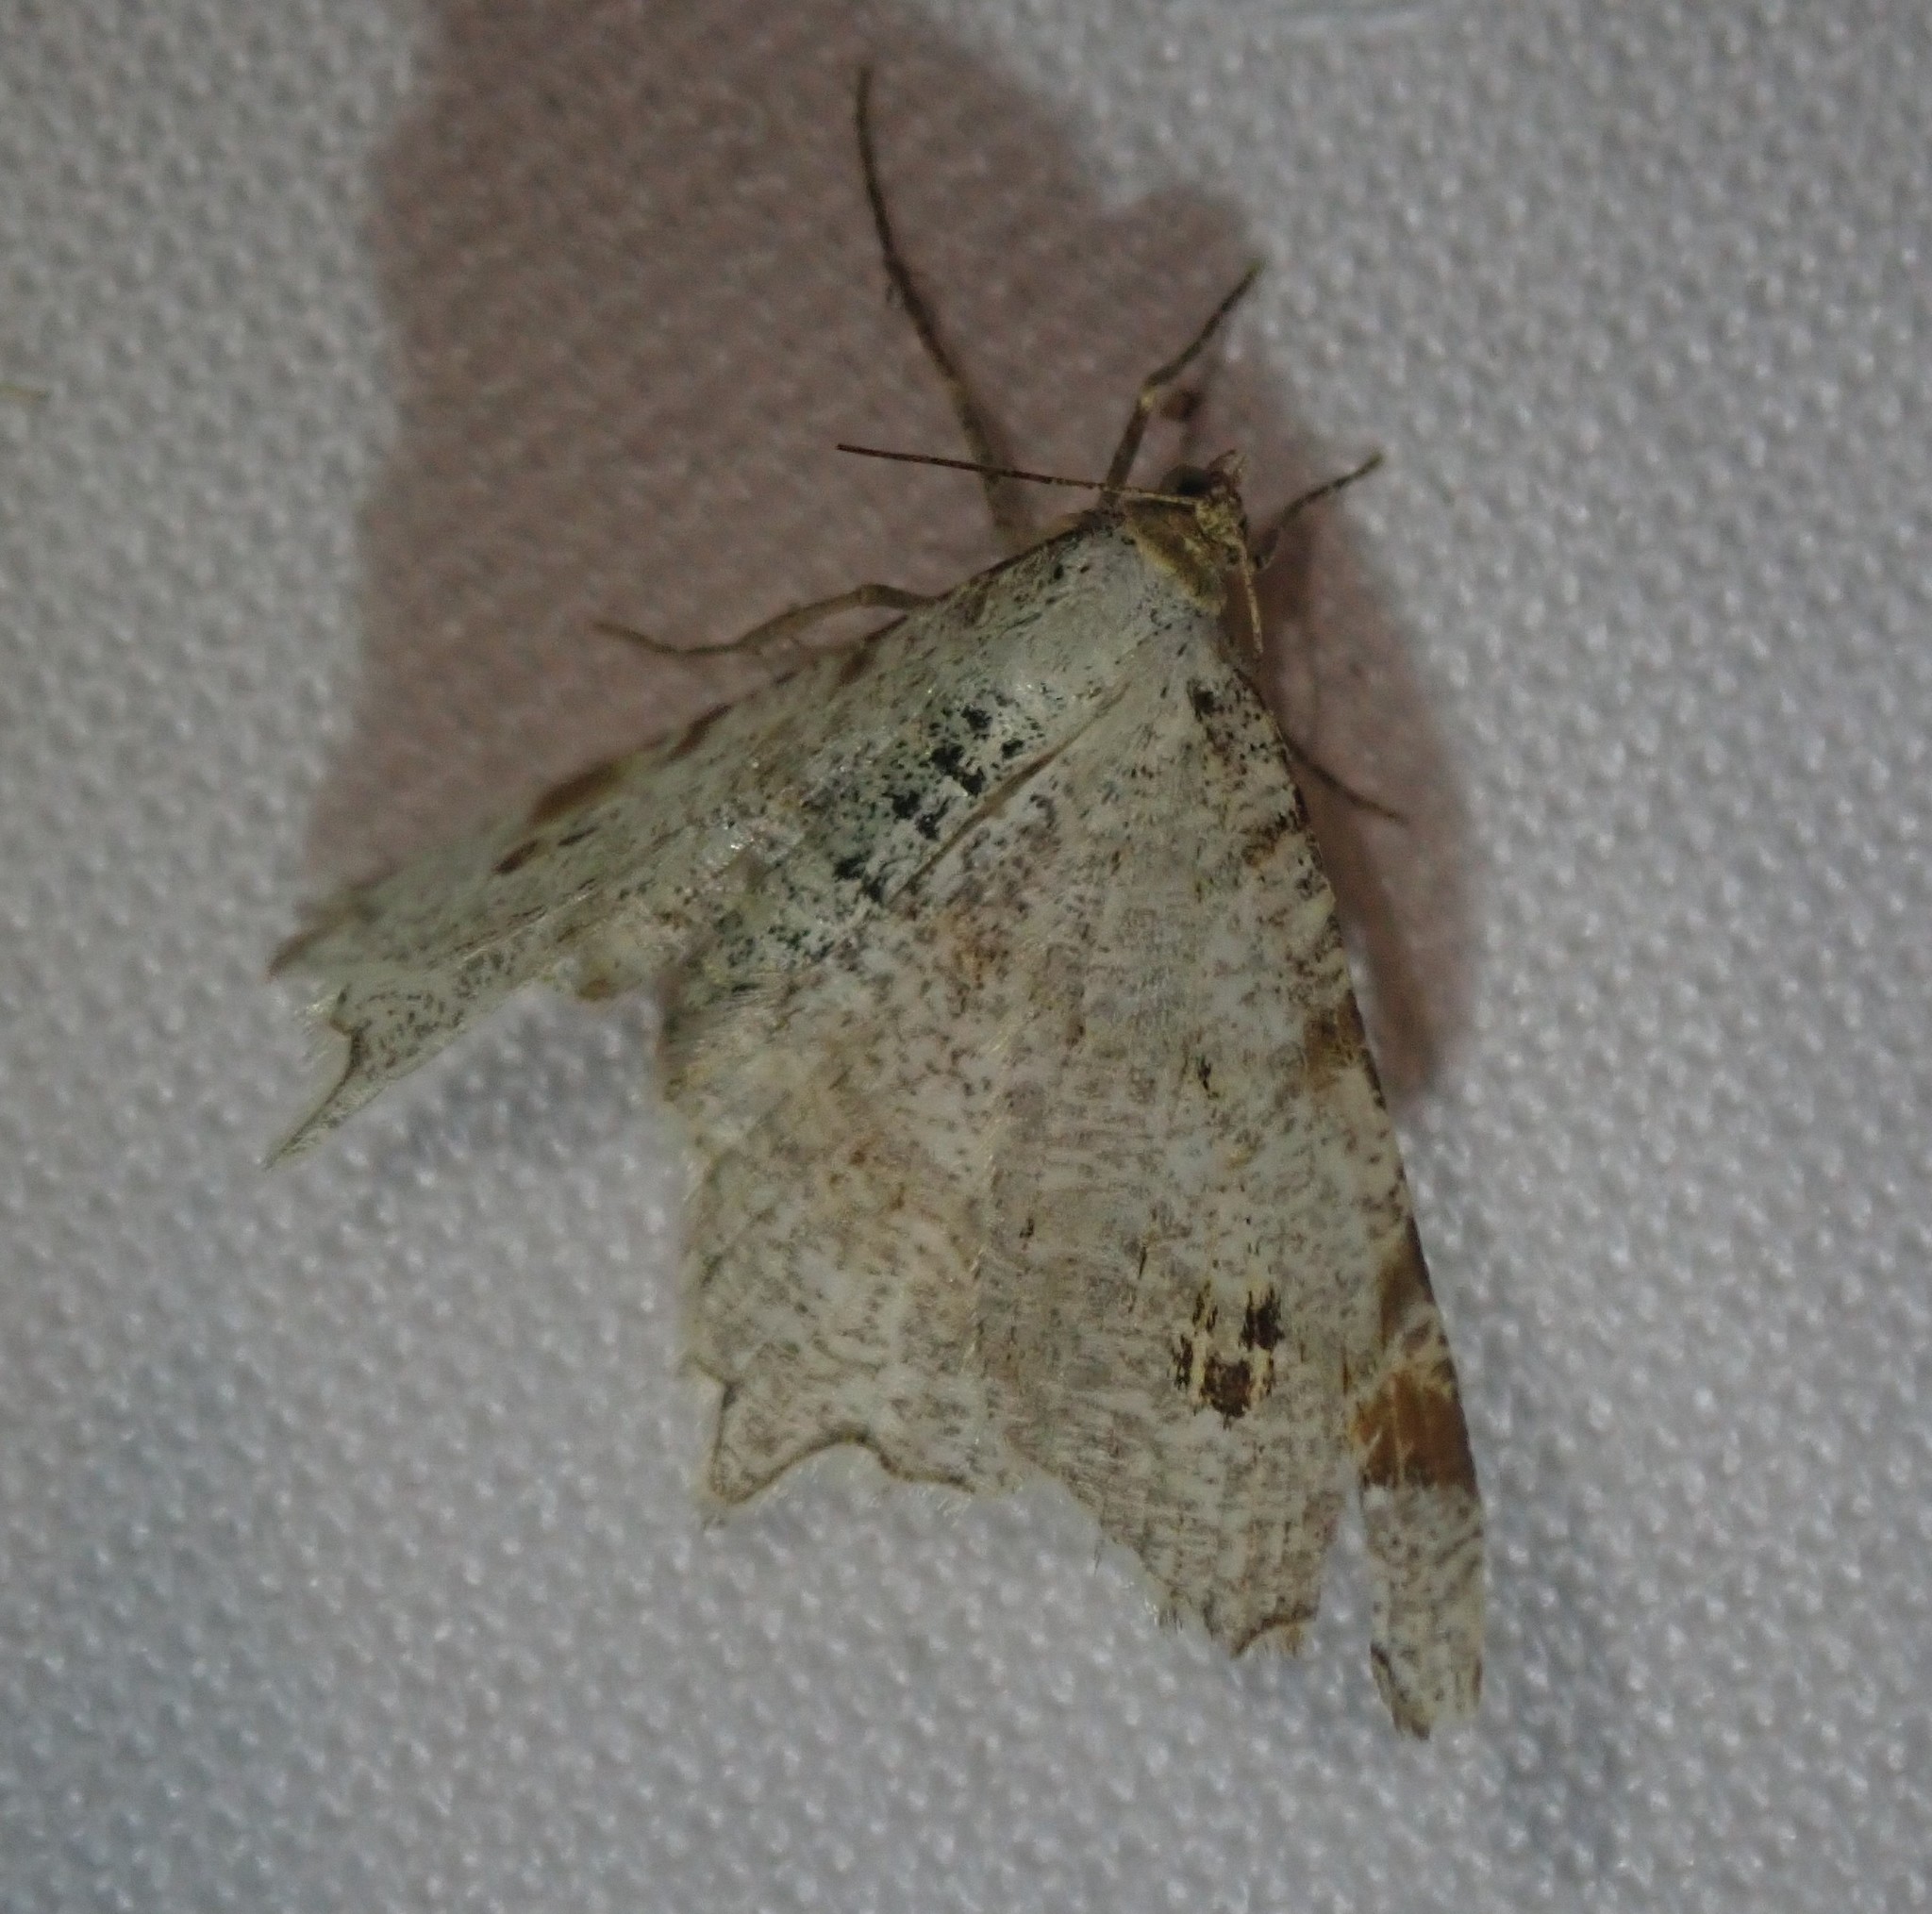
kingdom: Animalia
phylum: Arthropoda
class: Insecta
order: Lepidoptera
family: Geometridae
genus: Macaria
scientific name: Macaria alternata
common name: Sharp-angled peacock
